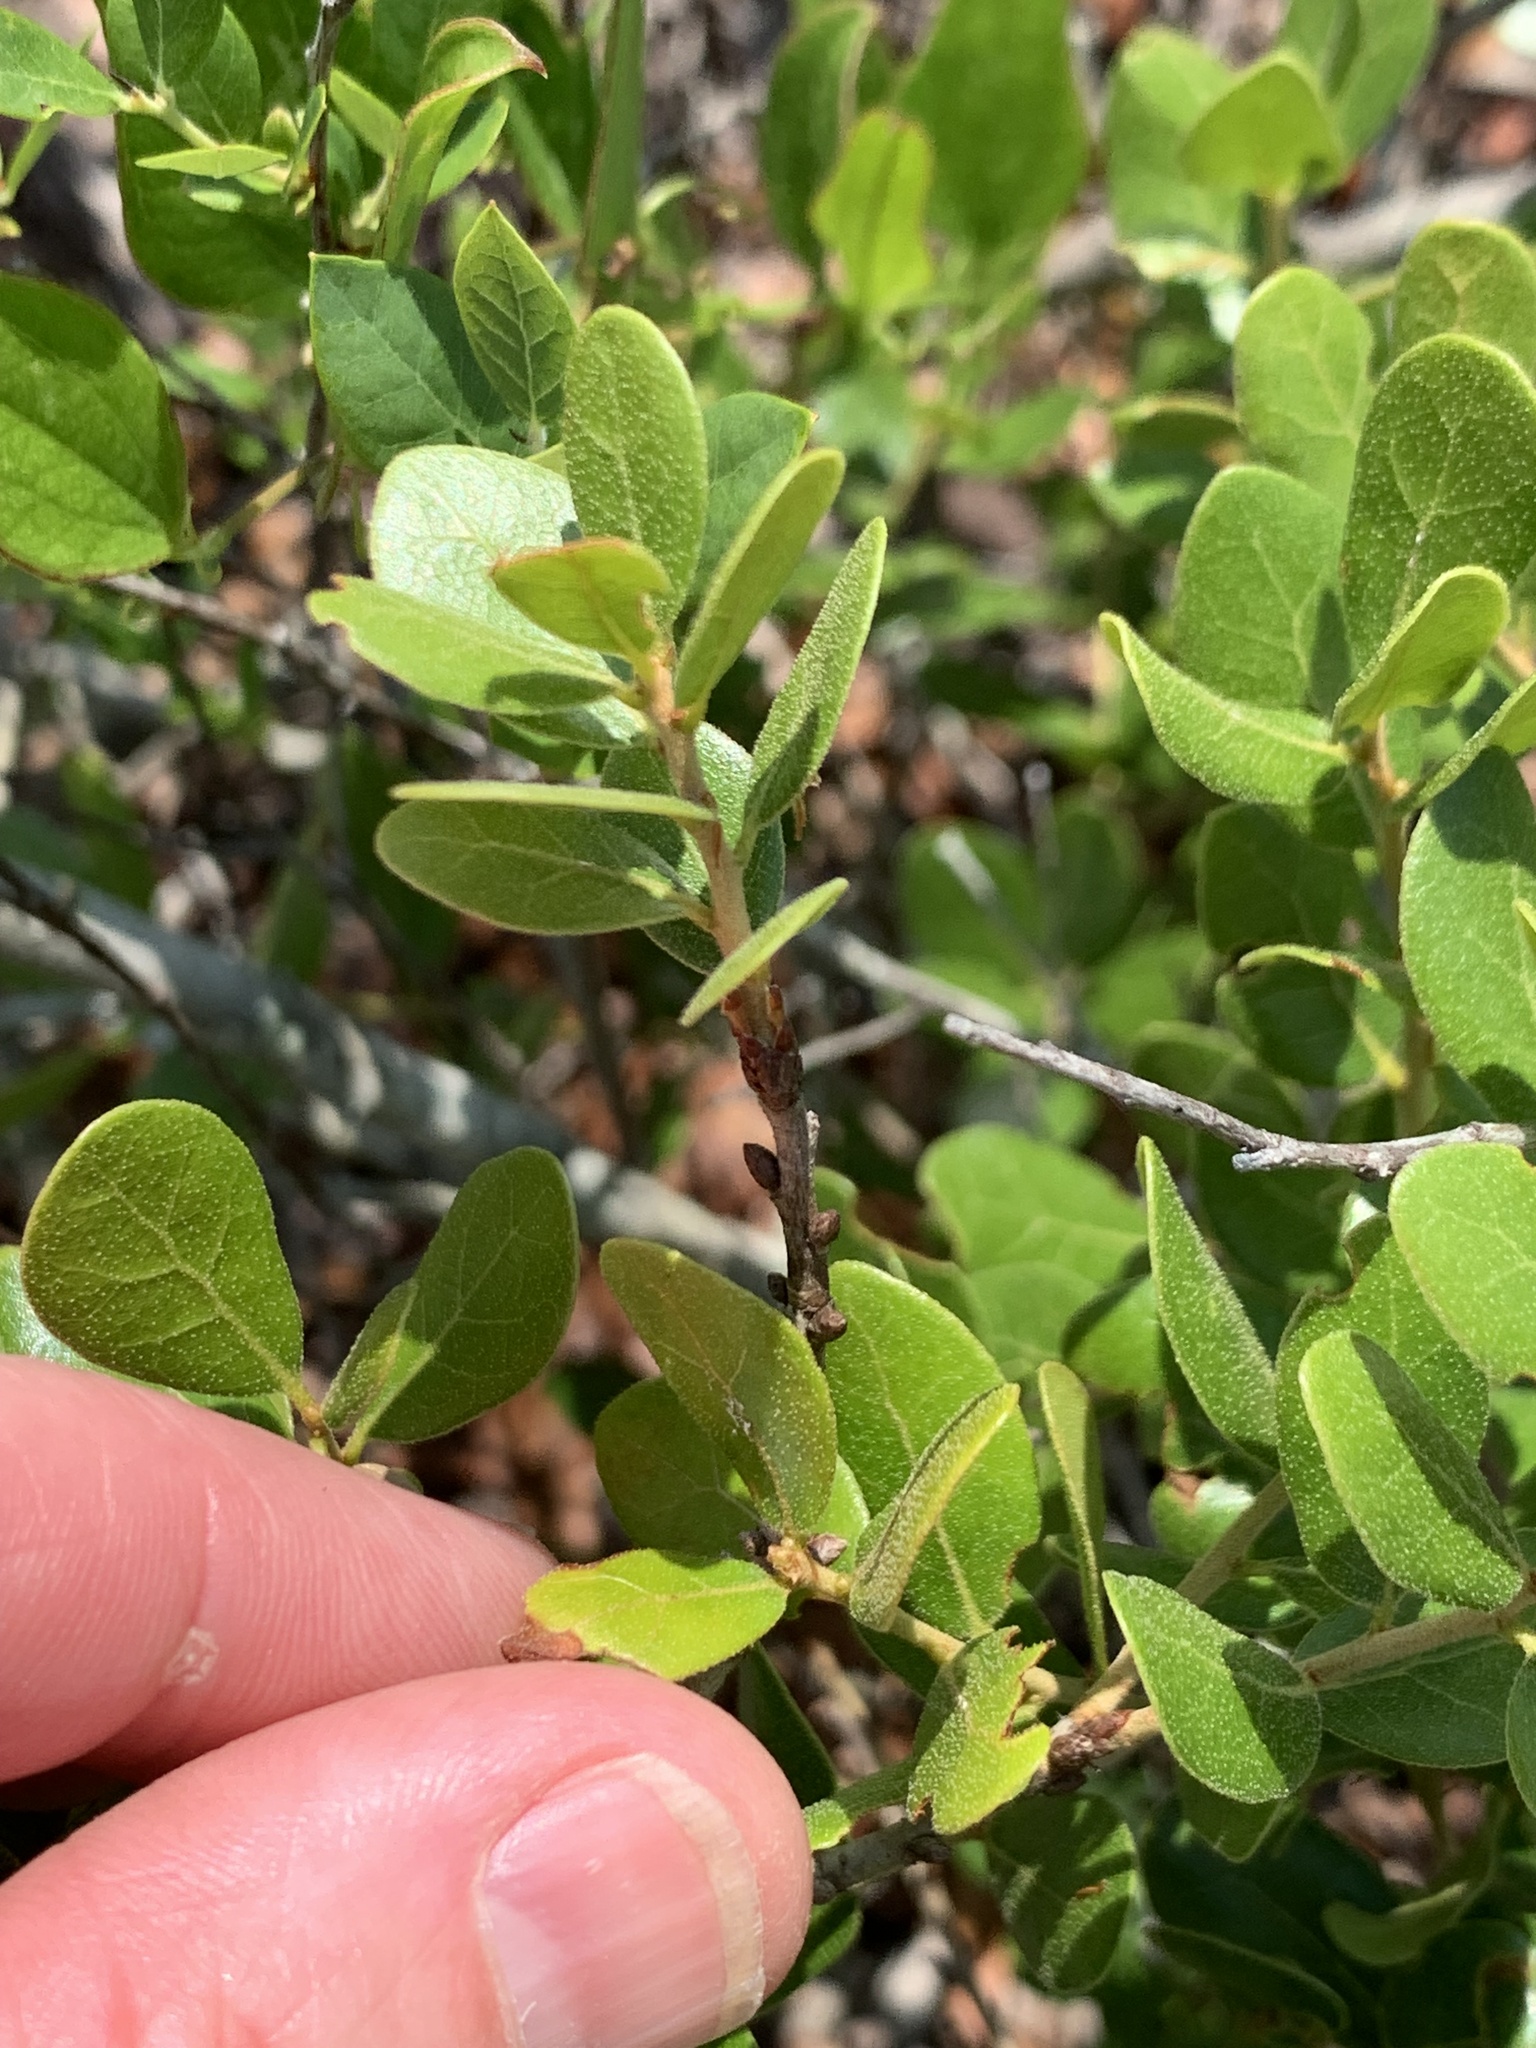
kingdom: Plantae
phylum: Tracheophyta
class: Magnoliopsida
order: Fagales
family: Fagaceae
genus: Quercus
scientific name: Quercus myrtifolia
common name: Myrtle oak
